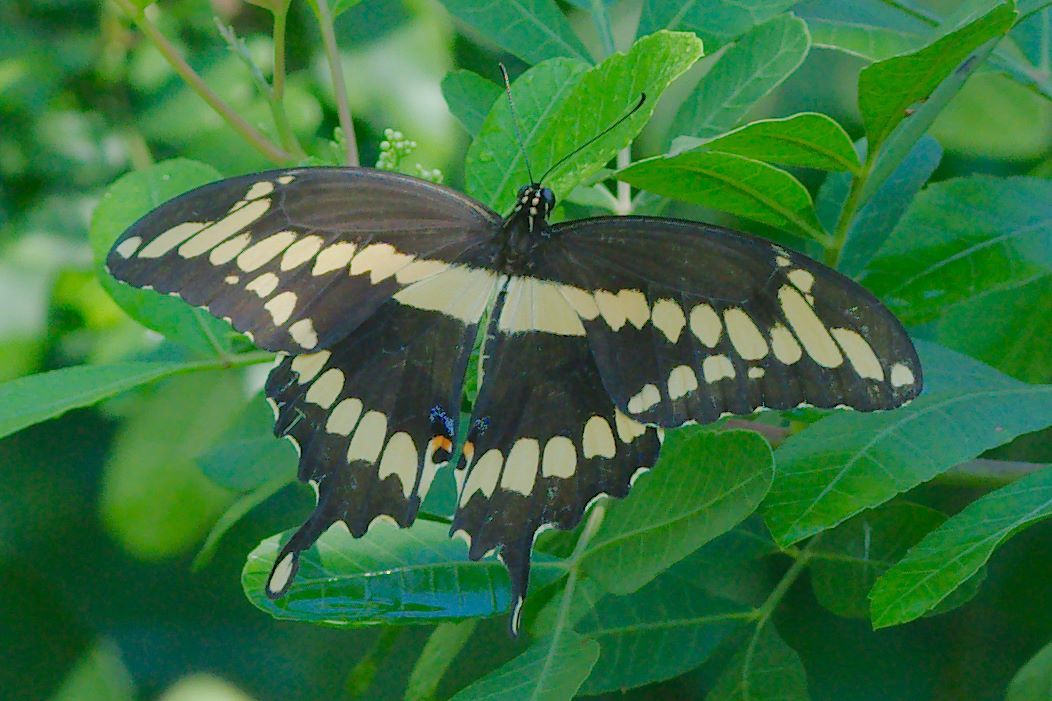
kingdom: Animalia
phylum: Arthropoda
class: Insecta
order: Lepidoptera
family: Papilionidae
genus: Papilio
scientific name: Papilio cresphontes
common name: Giant swallowtail
